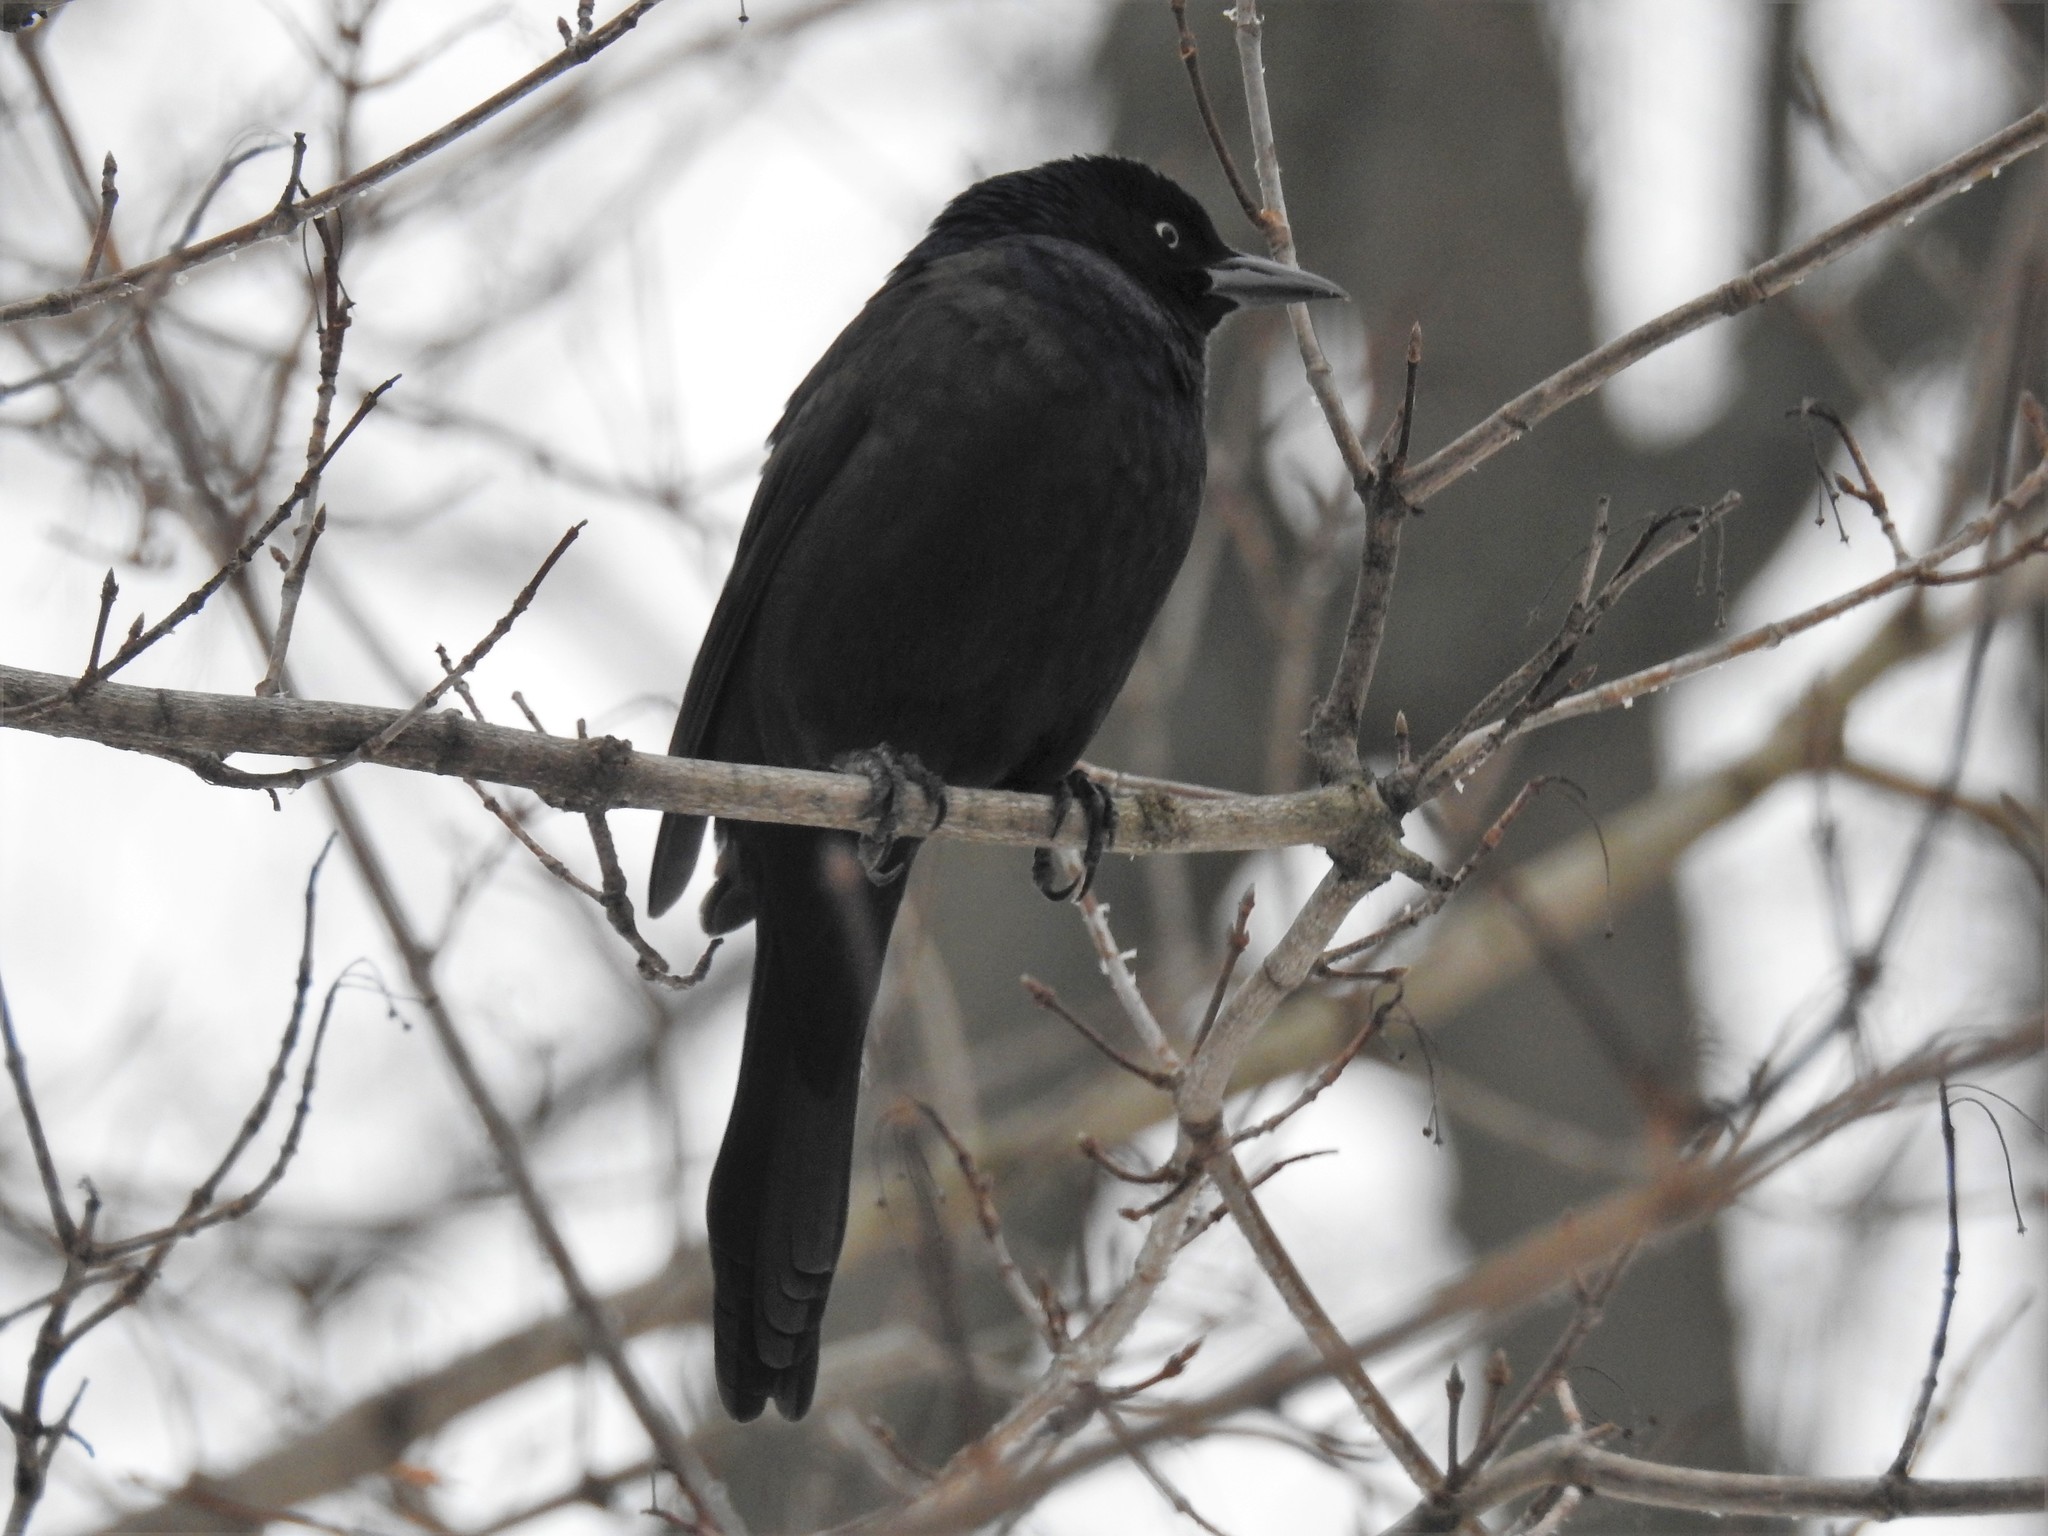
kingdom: Animalia
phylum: Chordata
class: Aves
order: Passeriformes
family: Icteridae
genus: Quiscalus
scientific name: Quiscalus quiscula
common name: Common grackle
